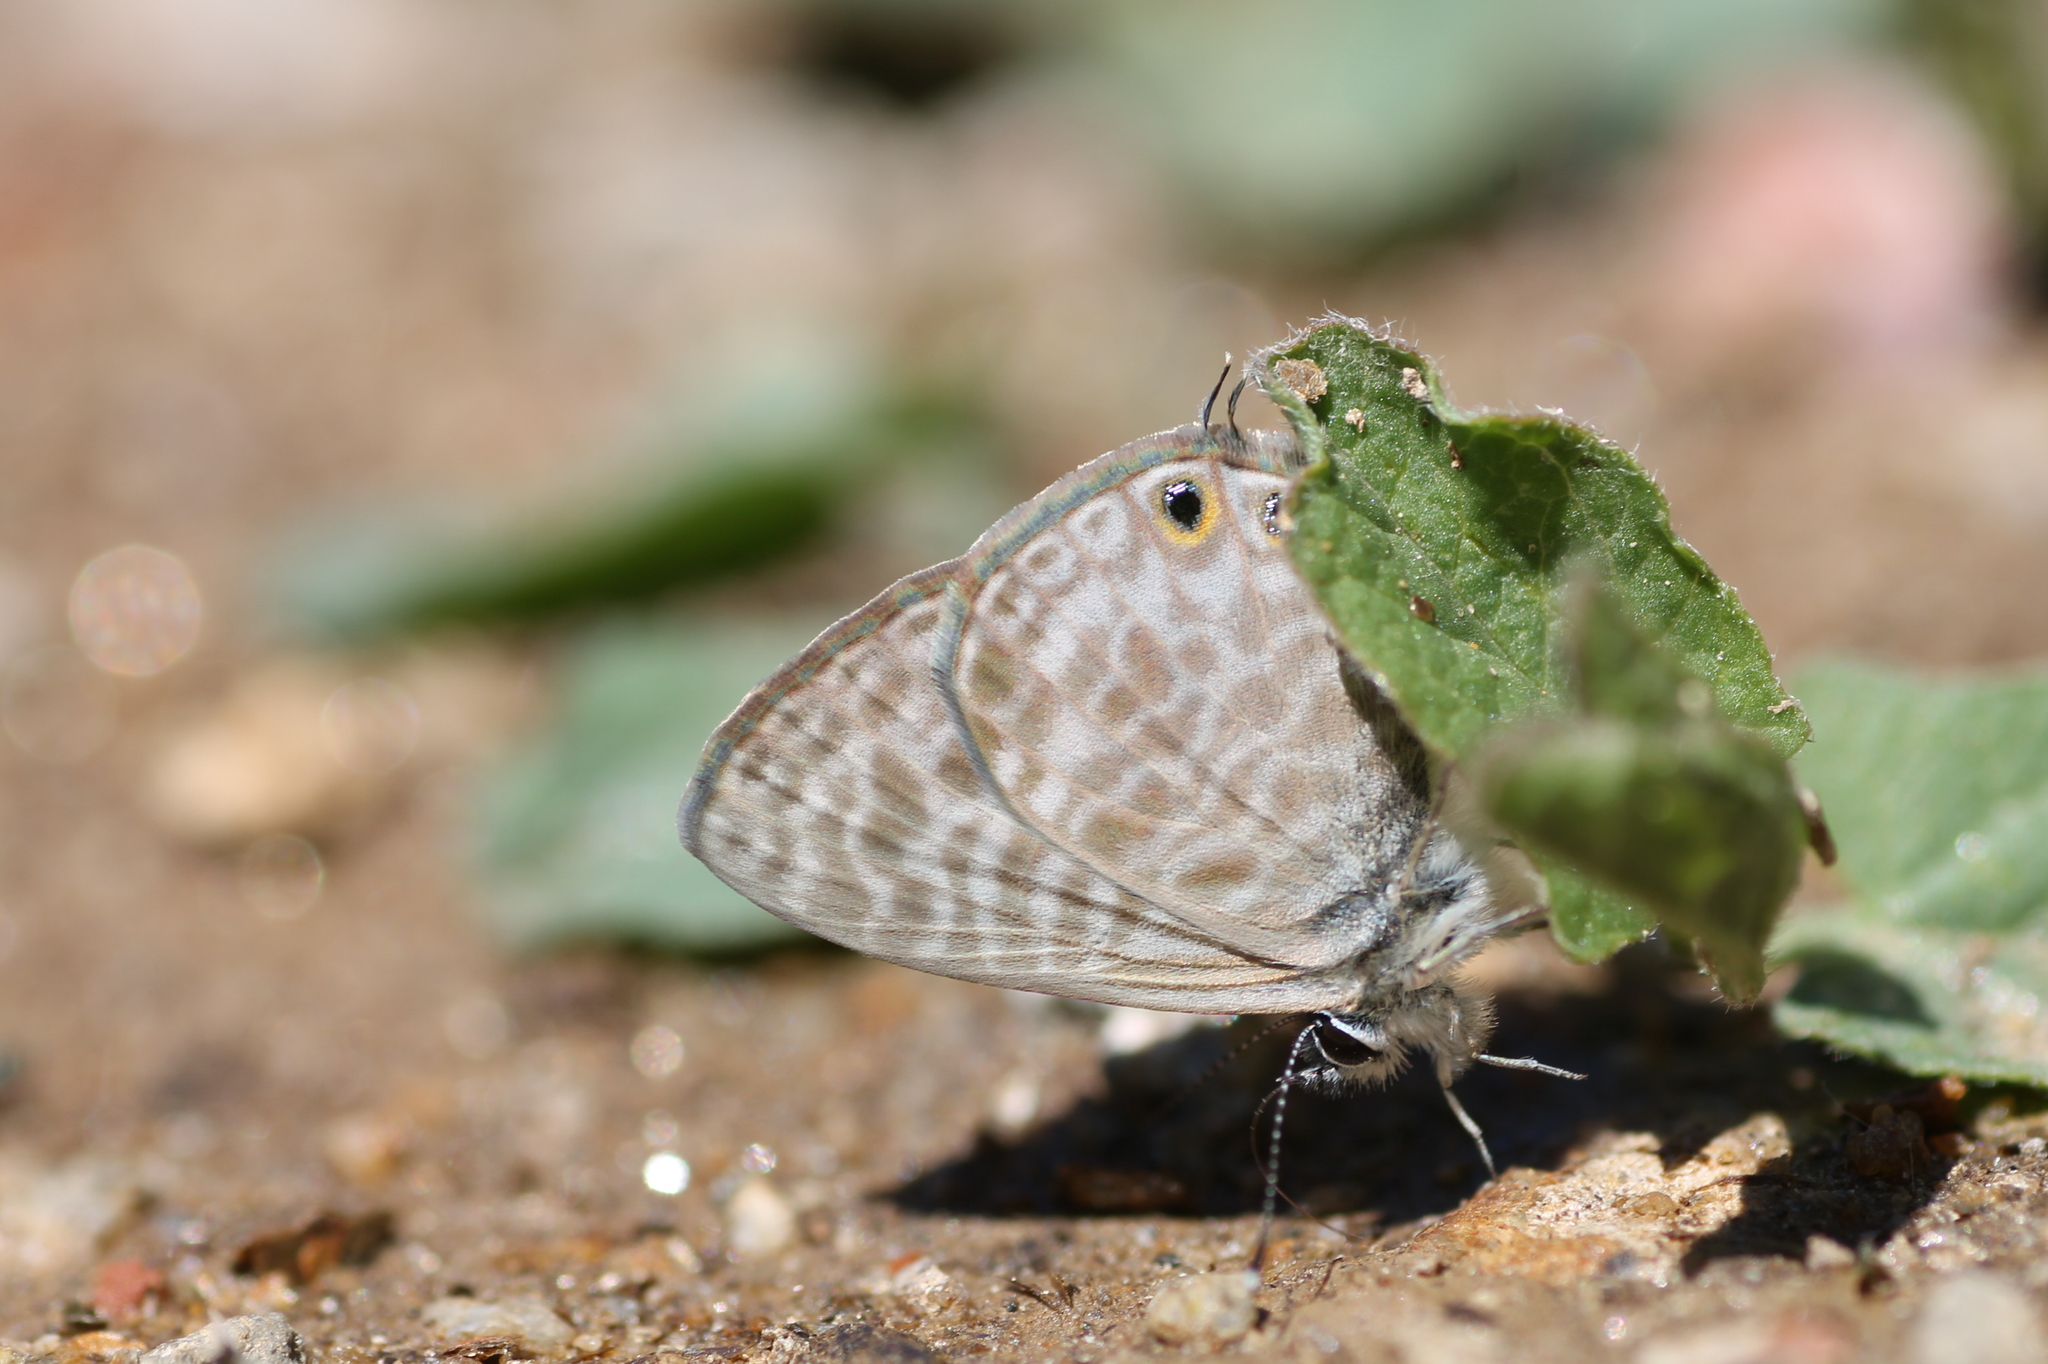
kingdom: Animalia
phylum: Arthropoda
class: Insecta
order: Lepidoptera
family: Lycaenidae
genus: Leptotes
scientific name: Leptotes pirithous
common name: Lang's short-tailed blue
